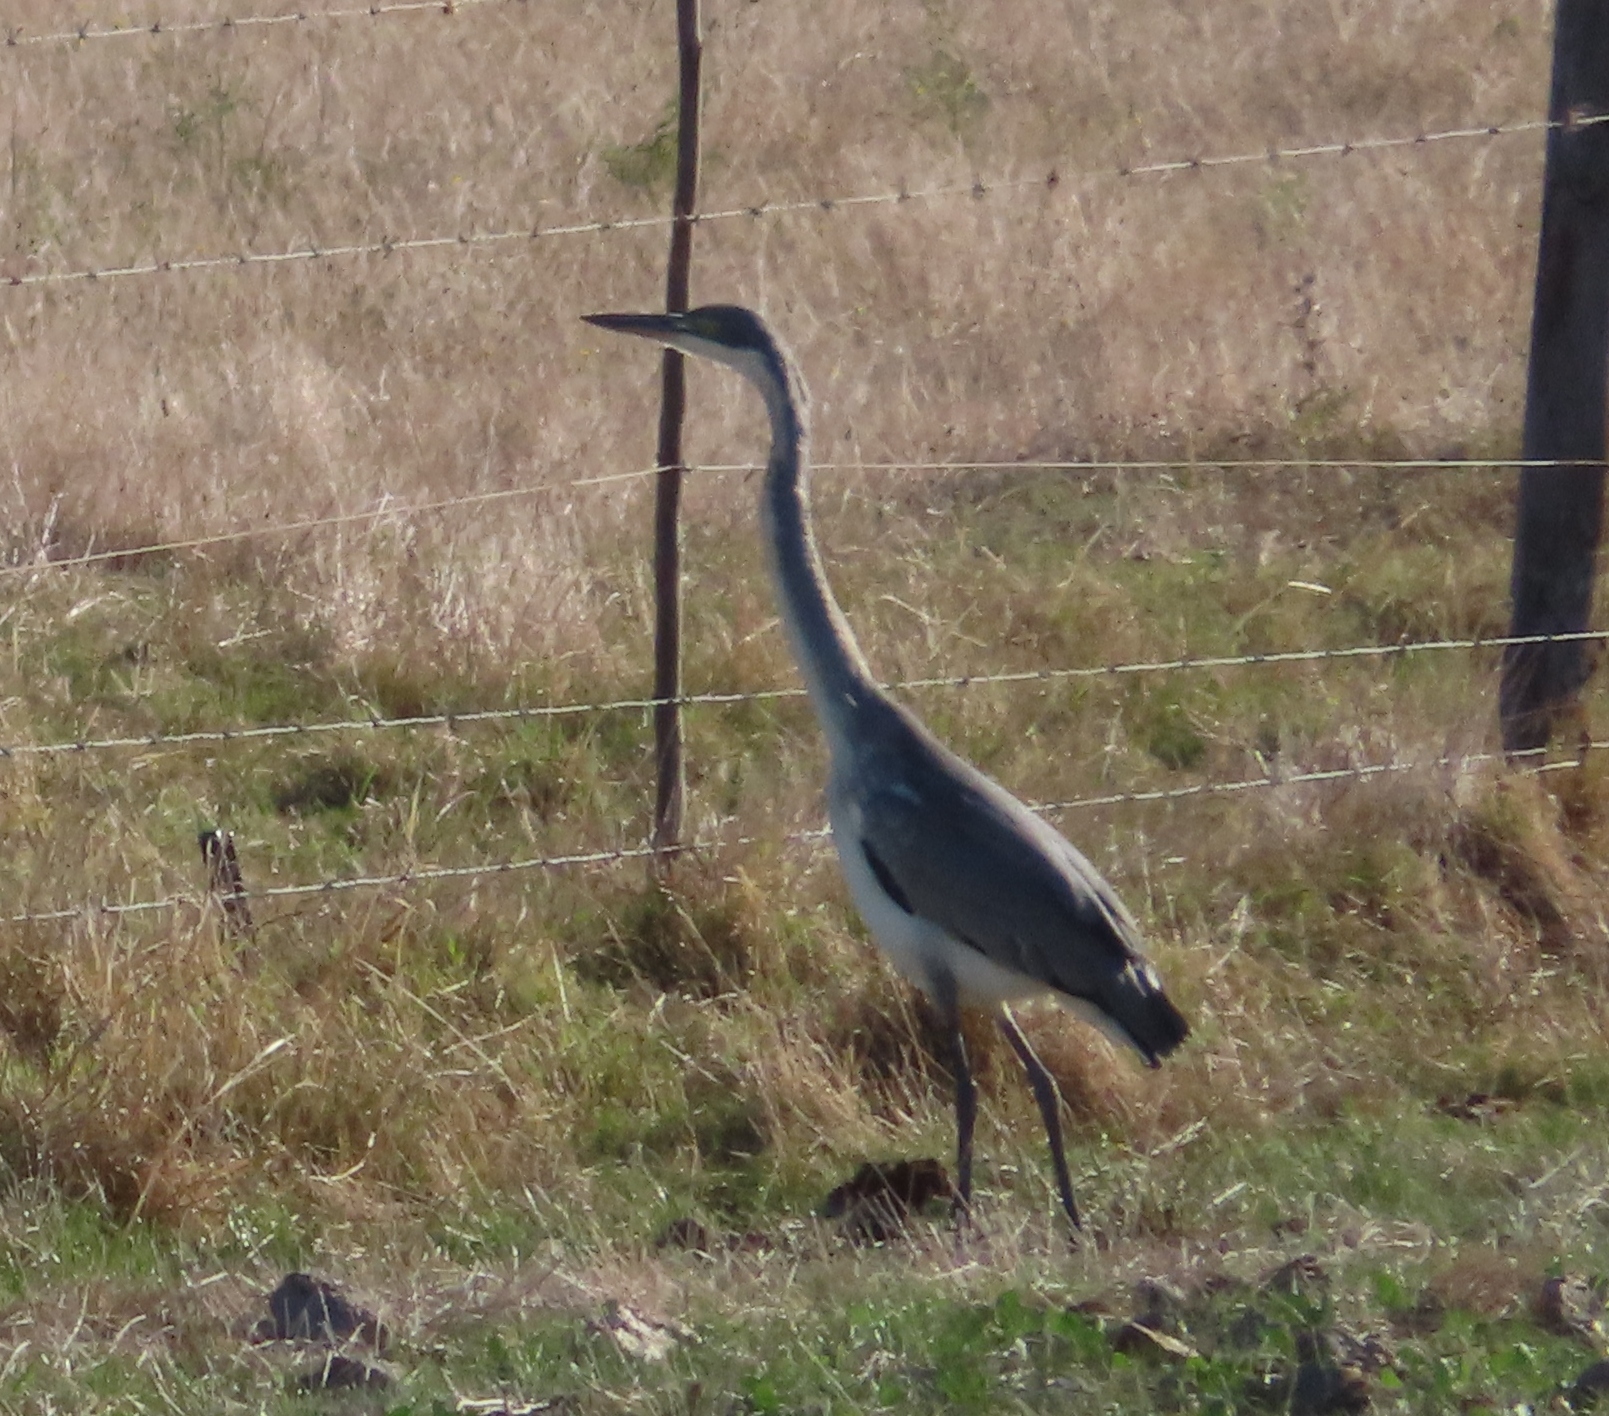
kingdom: Animalia
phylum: Chordata
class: Aves
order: Pelecaniformes
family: Ardeidae
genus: Ardea
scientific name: Ardea melanocephala
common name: Black-headed heron
